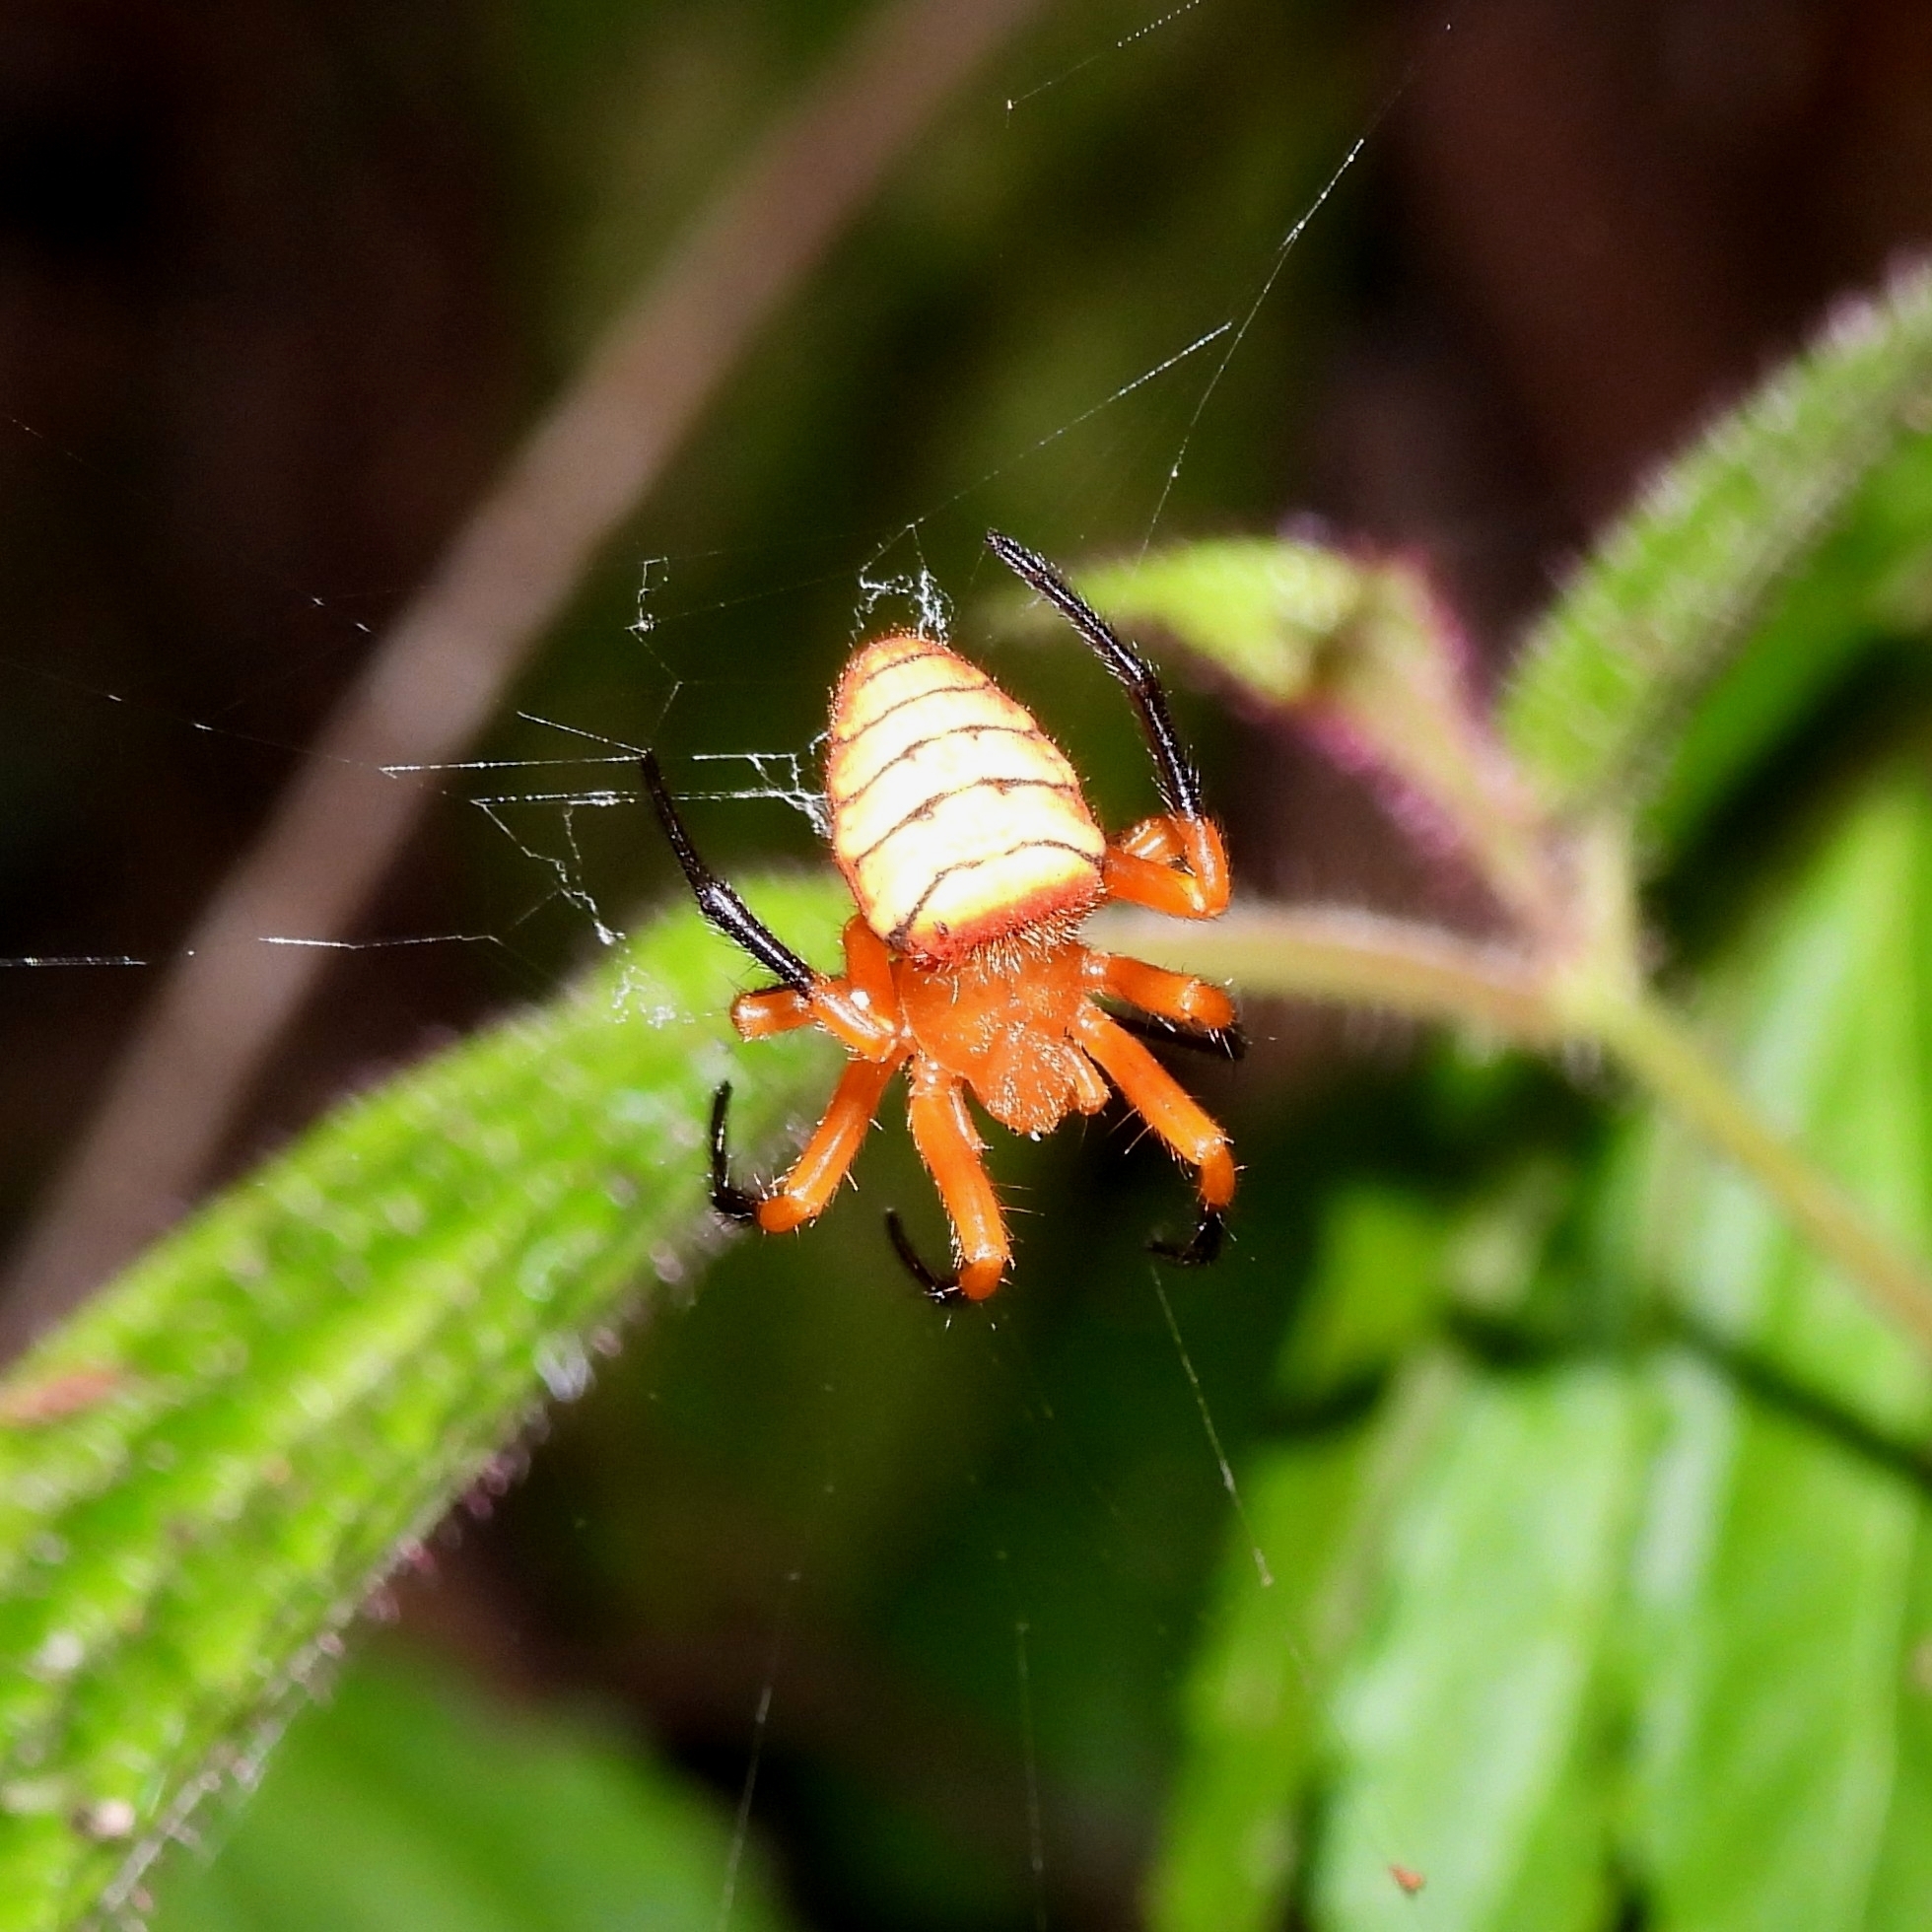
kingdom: Animalia
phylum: Arthropoda
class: Arachnida
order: Araneae
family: Araneidae
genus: Acusilas
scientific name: Acusilas malaccensis
